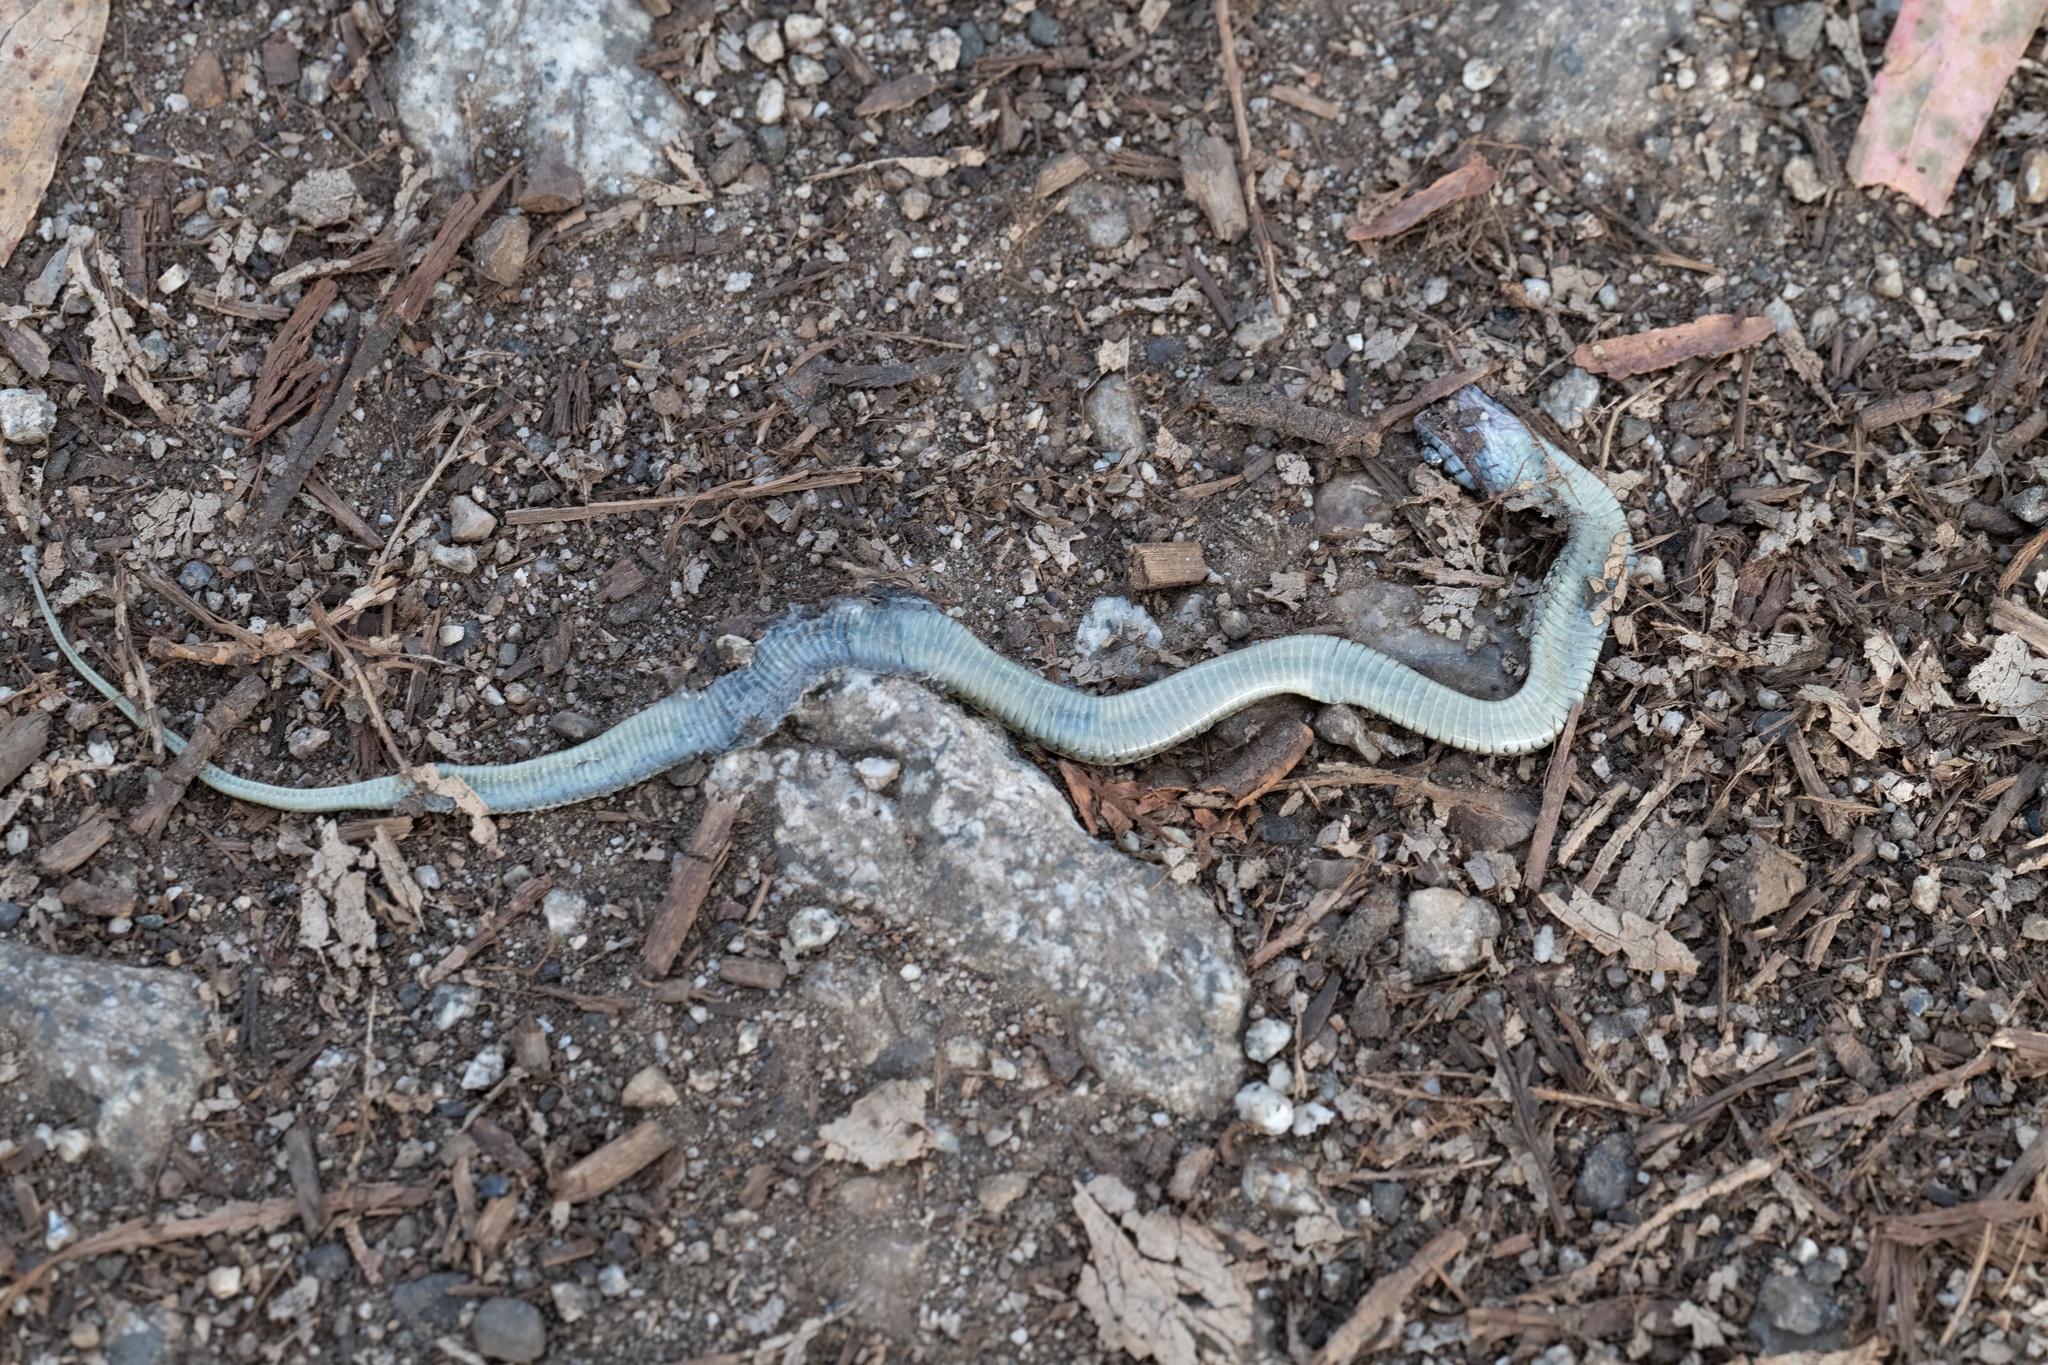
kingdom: Animalia
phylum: Chordata
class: Squamata
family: Colubridae
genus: Thamnophis
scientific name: Thamnophis elegans
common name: Western terrestrial garter snake
